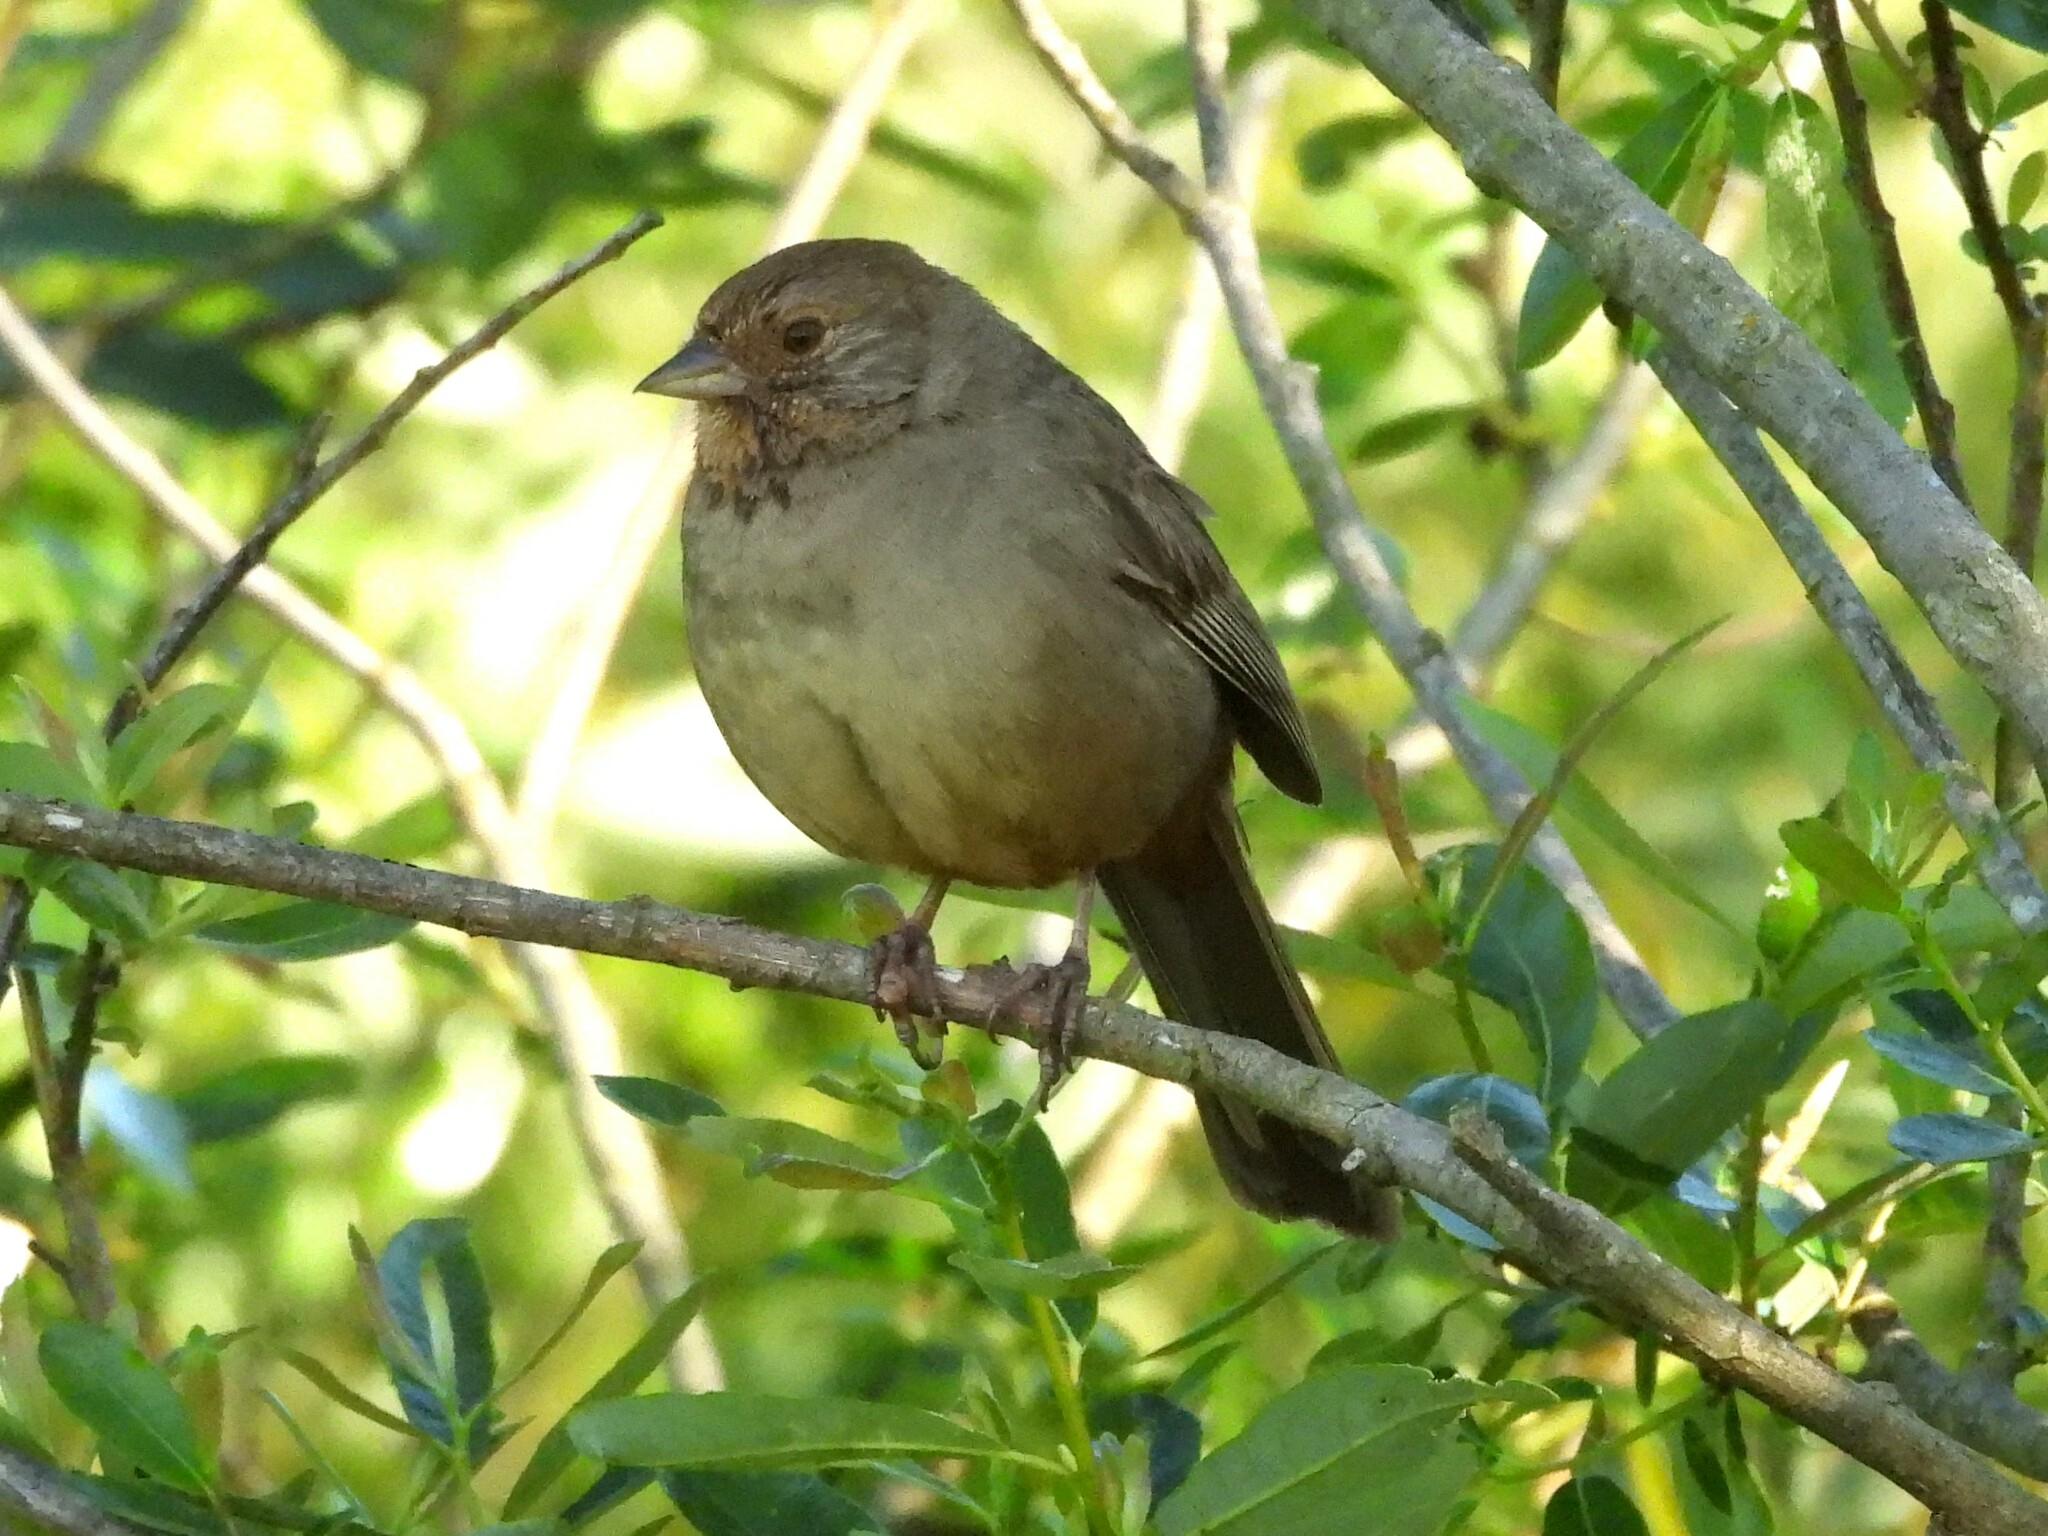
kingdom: Animalia
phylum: Chordata
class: Aves
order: Passeriformes
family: Passerellidae
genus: Melozone
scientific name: Melozone crissalis
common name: California towhee
